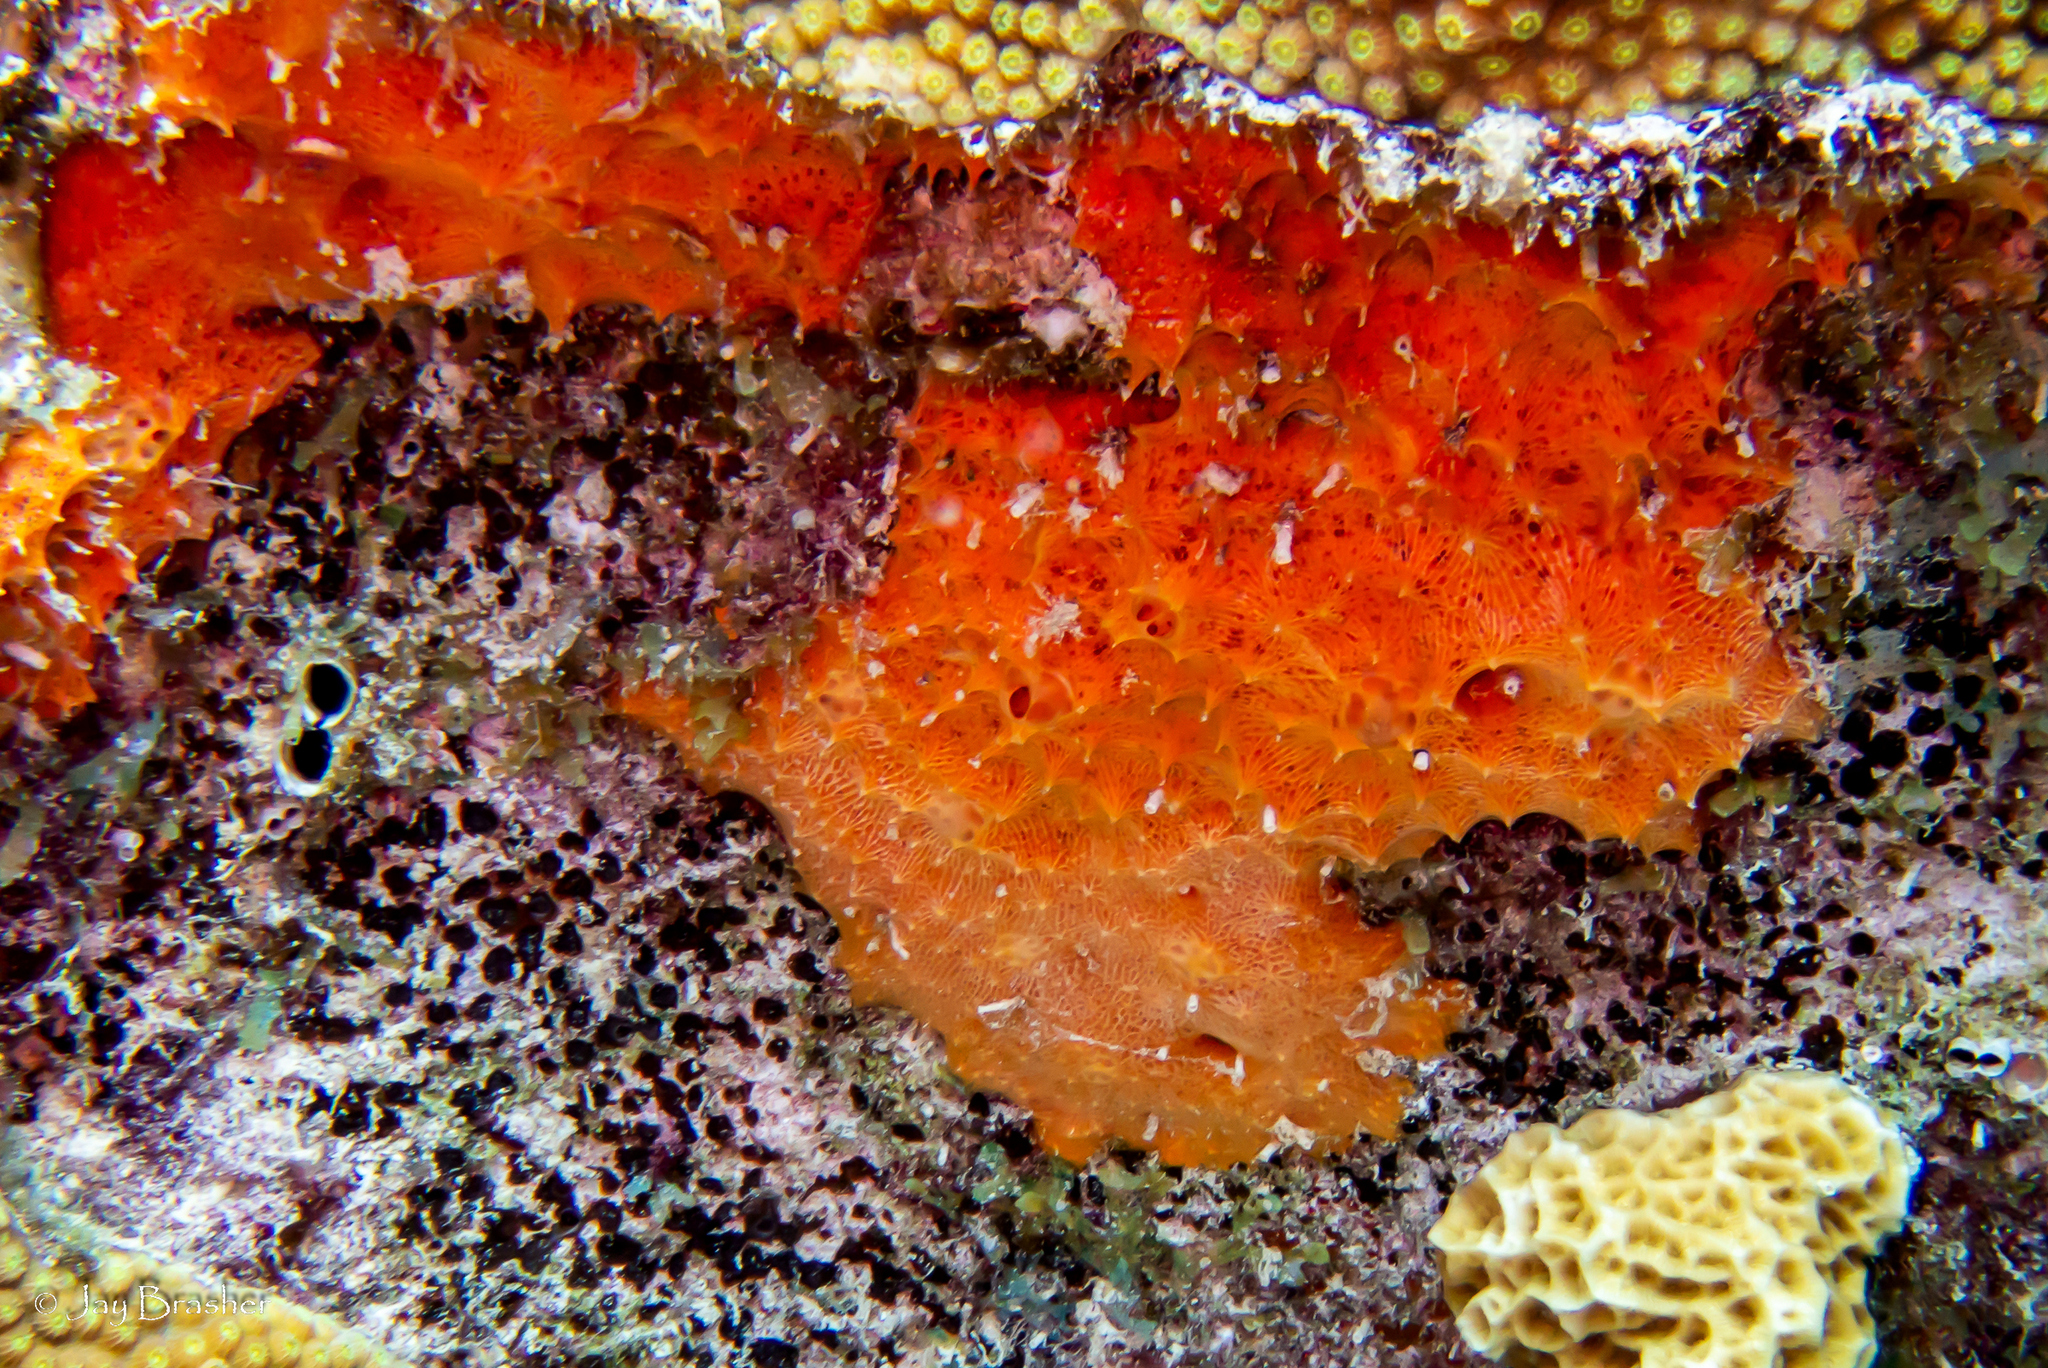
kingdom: Animalia
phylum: Porifera
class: Demospongiae
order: Scopalinida
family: Scopalinidae
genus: Scopalina
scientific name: Scopalina ruetzleri
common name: Orange lumpy encrusting sponge
